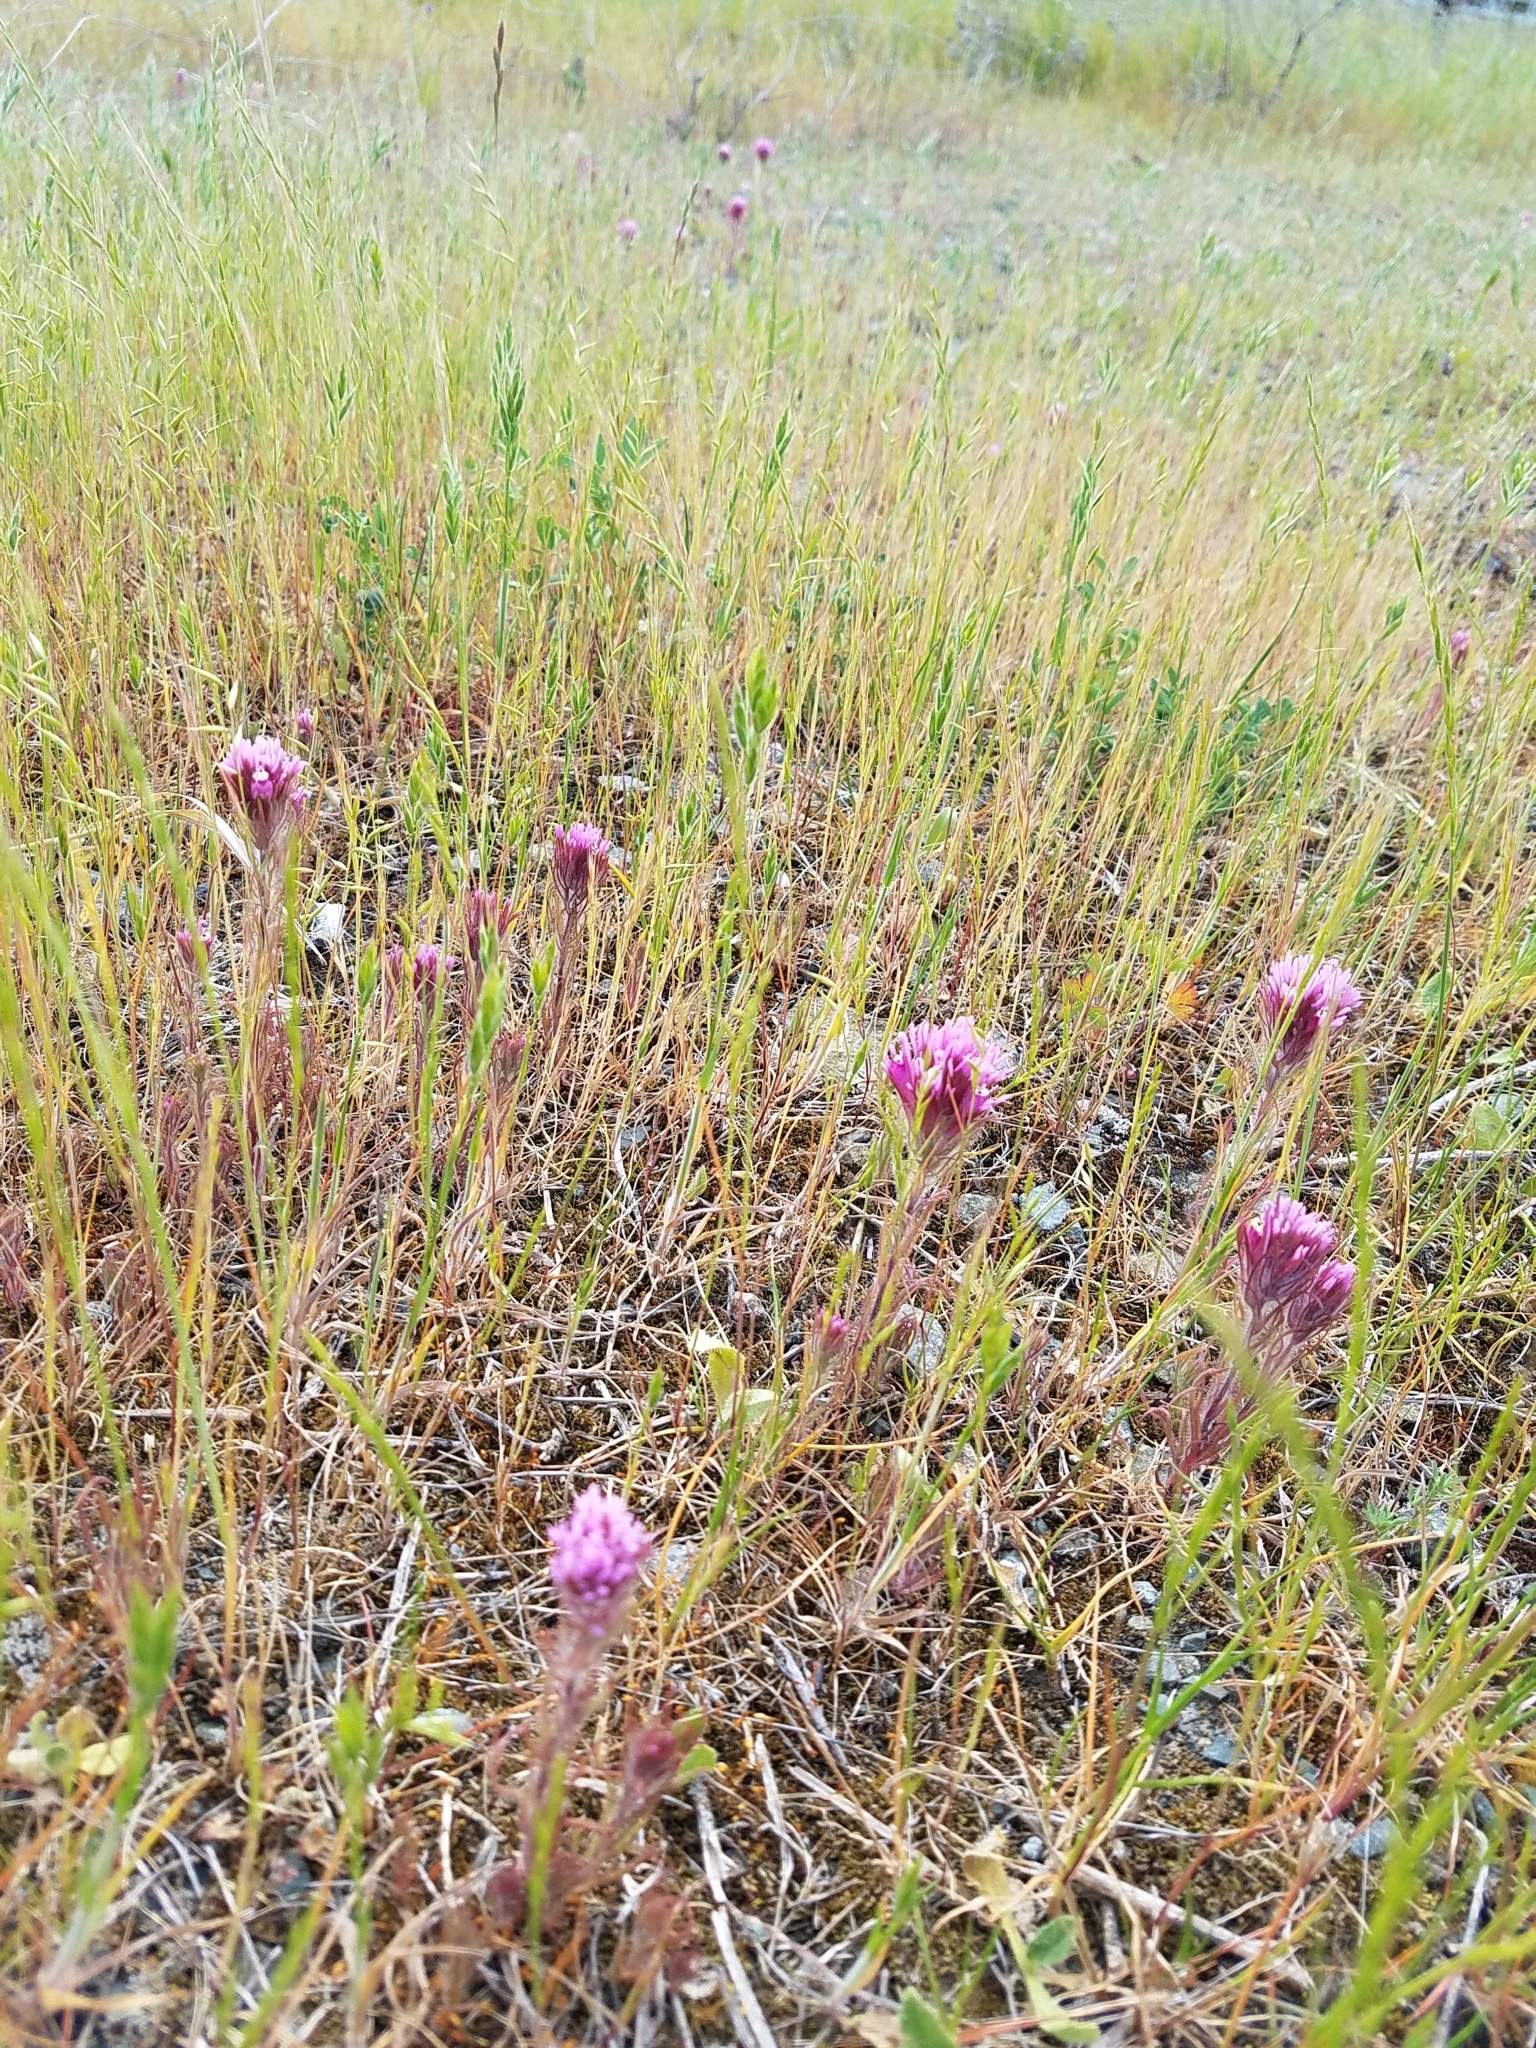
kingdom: Plantae
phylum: Tracheophyta
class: Magnoliopsida
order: Lamiales
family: Orobanchaceae
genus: Castilleja
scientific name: Castilleja exserta
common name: Purple owl-clover
